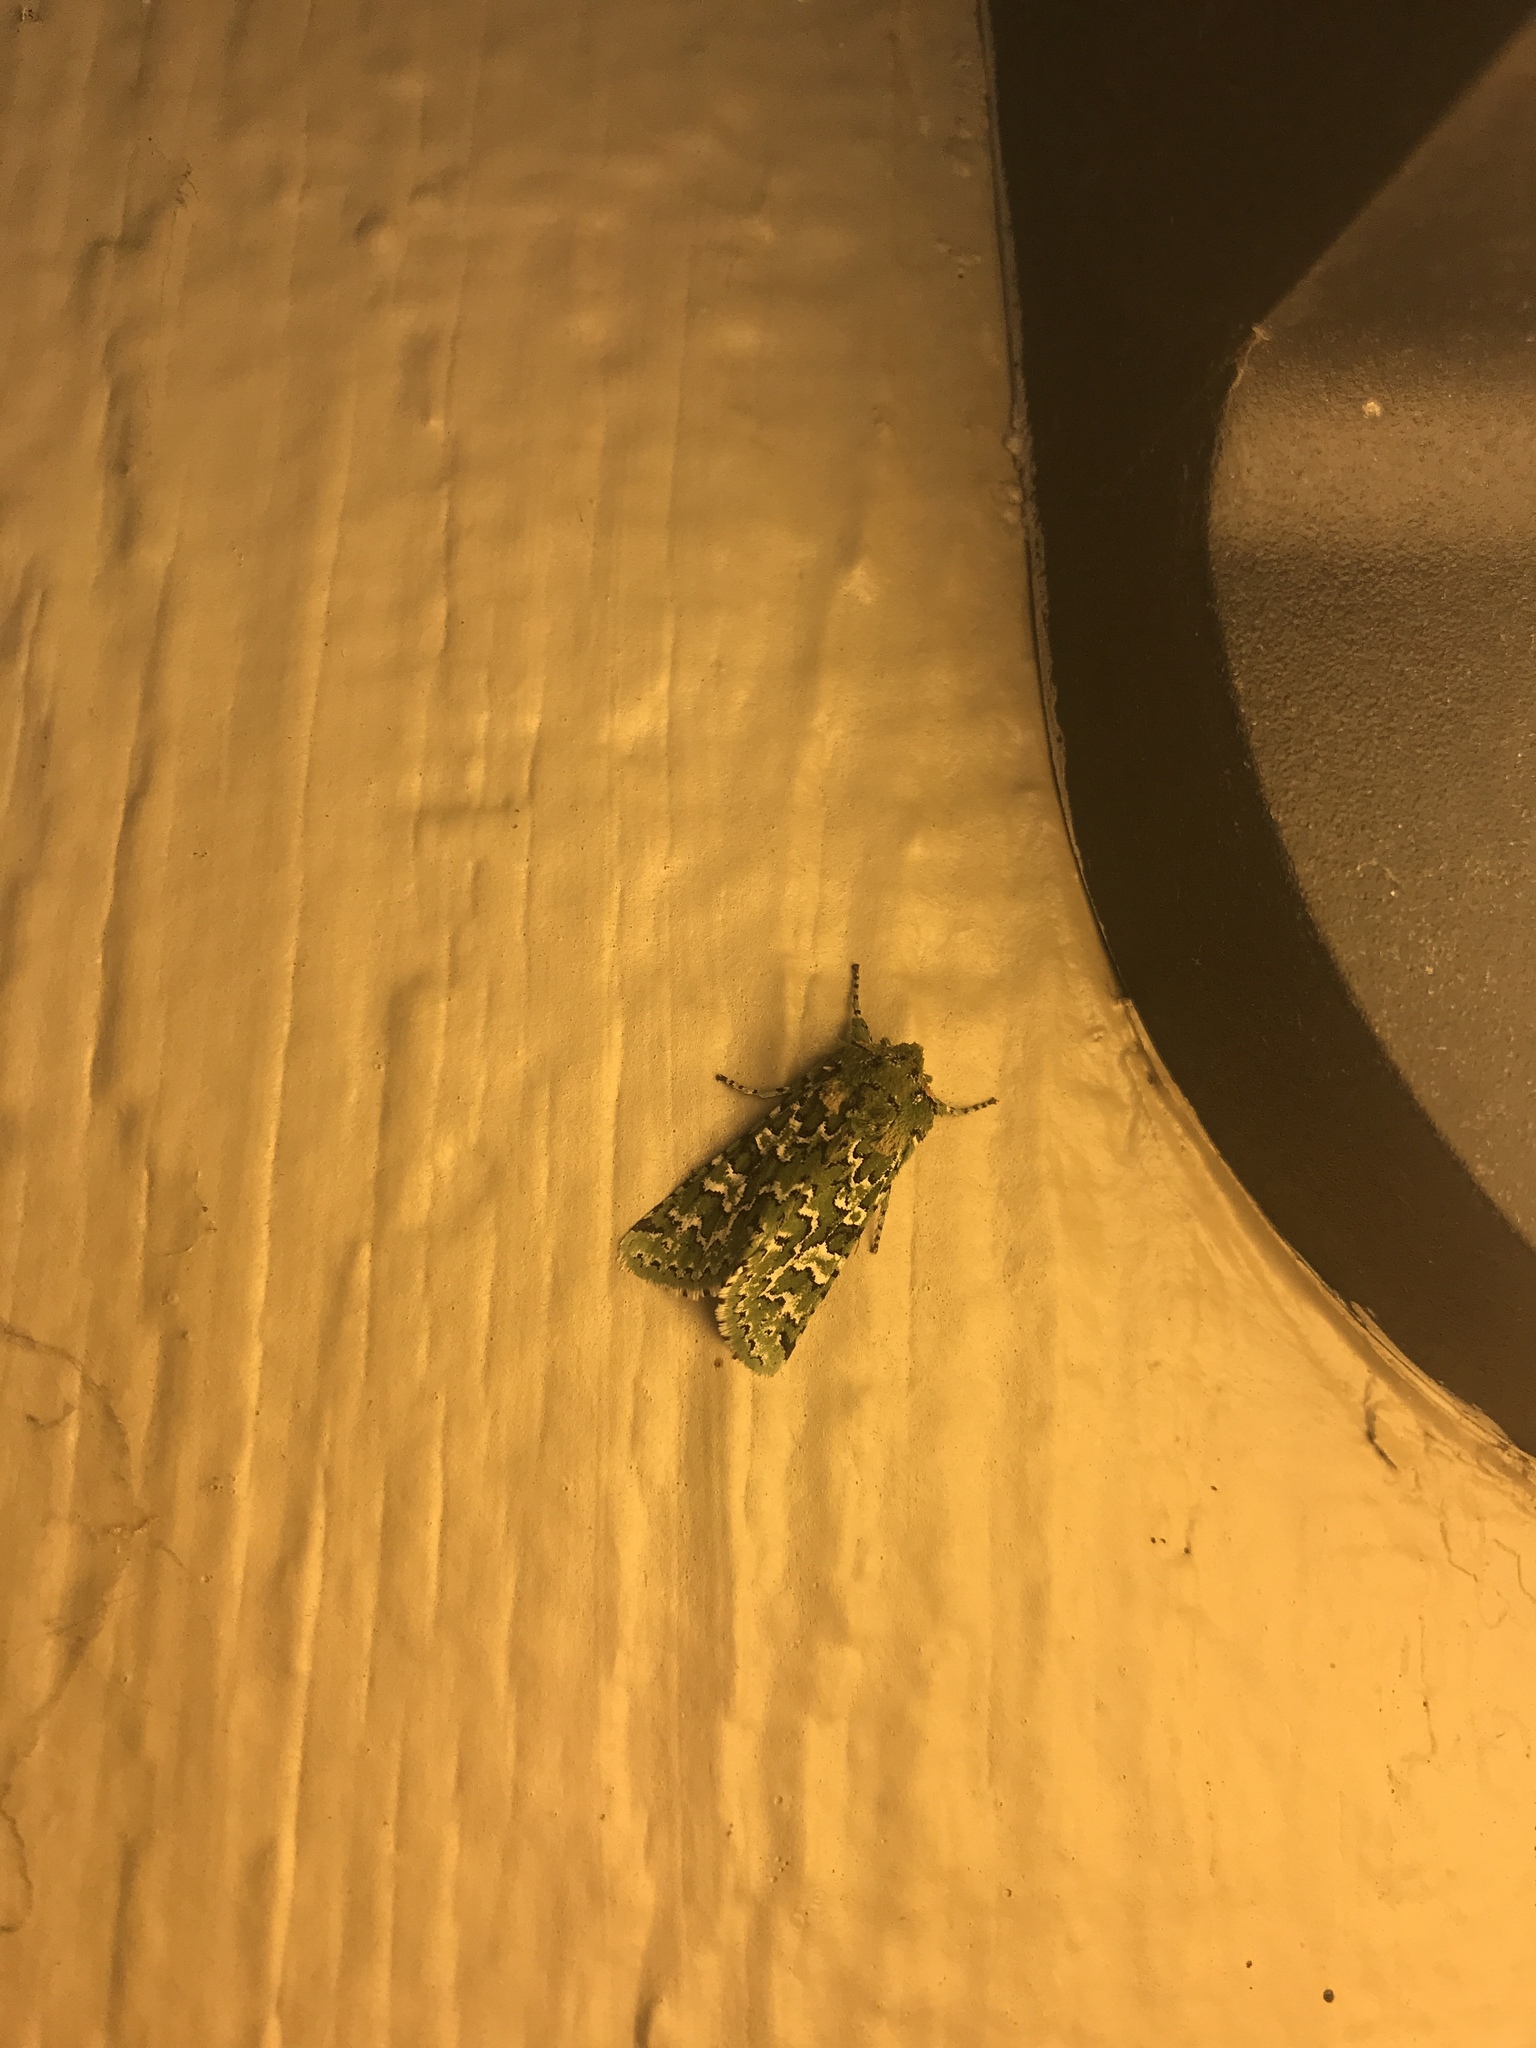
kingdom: Animalia
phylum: Arthropoda
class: Insecta
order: Lepidoptera
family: Noctuidae
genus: Feralia
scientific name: Feralia februalis
